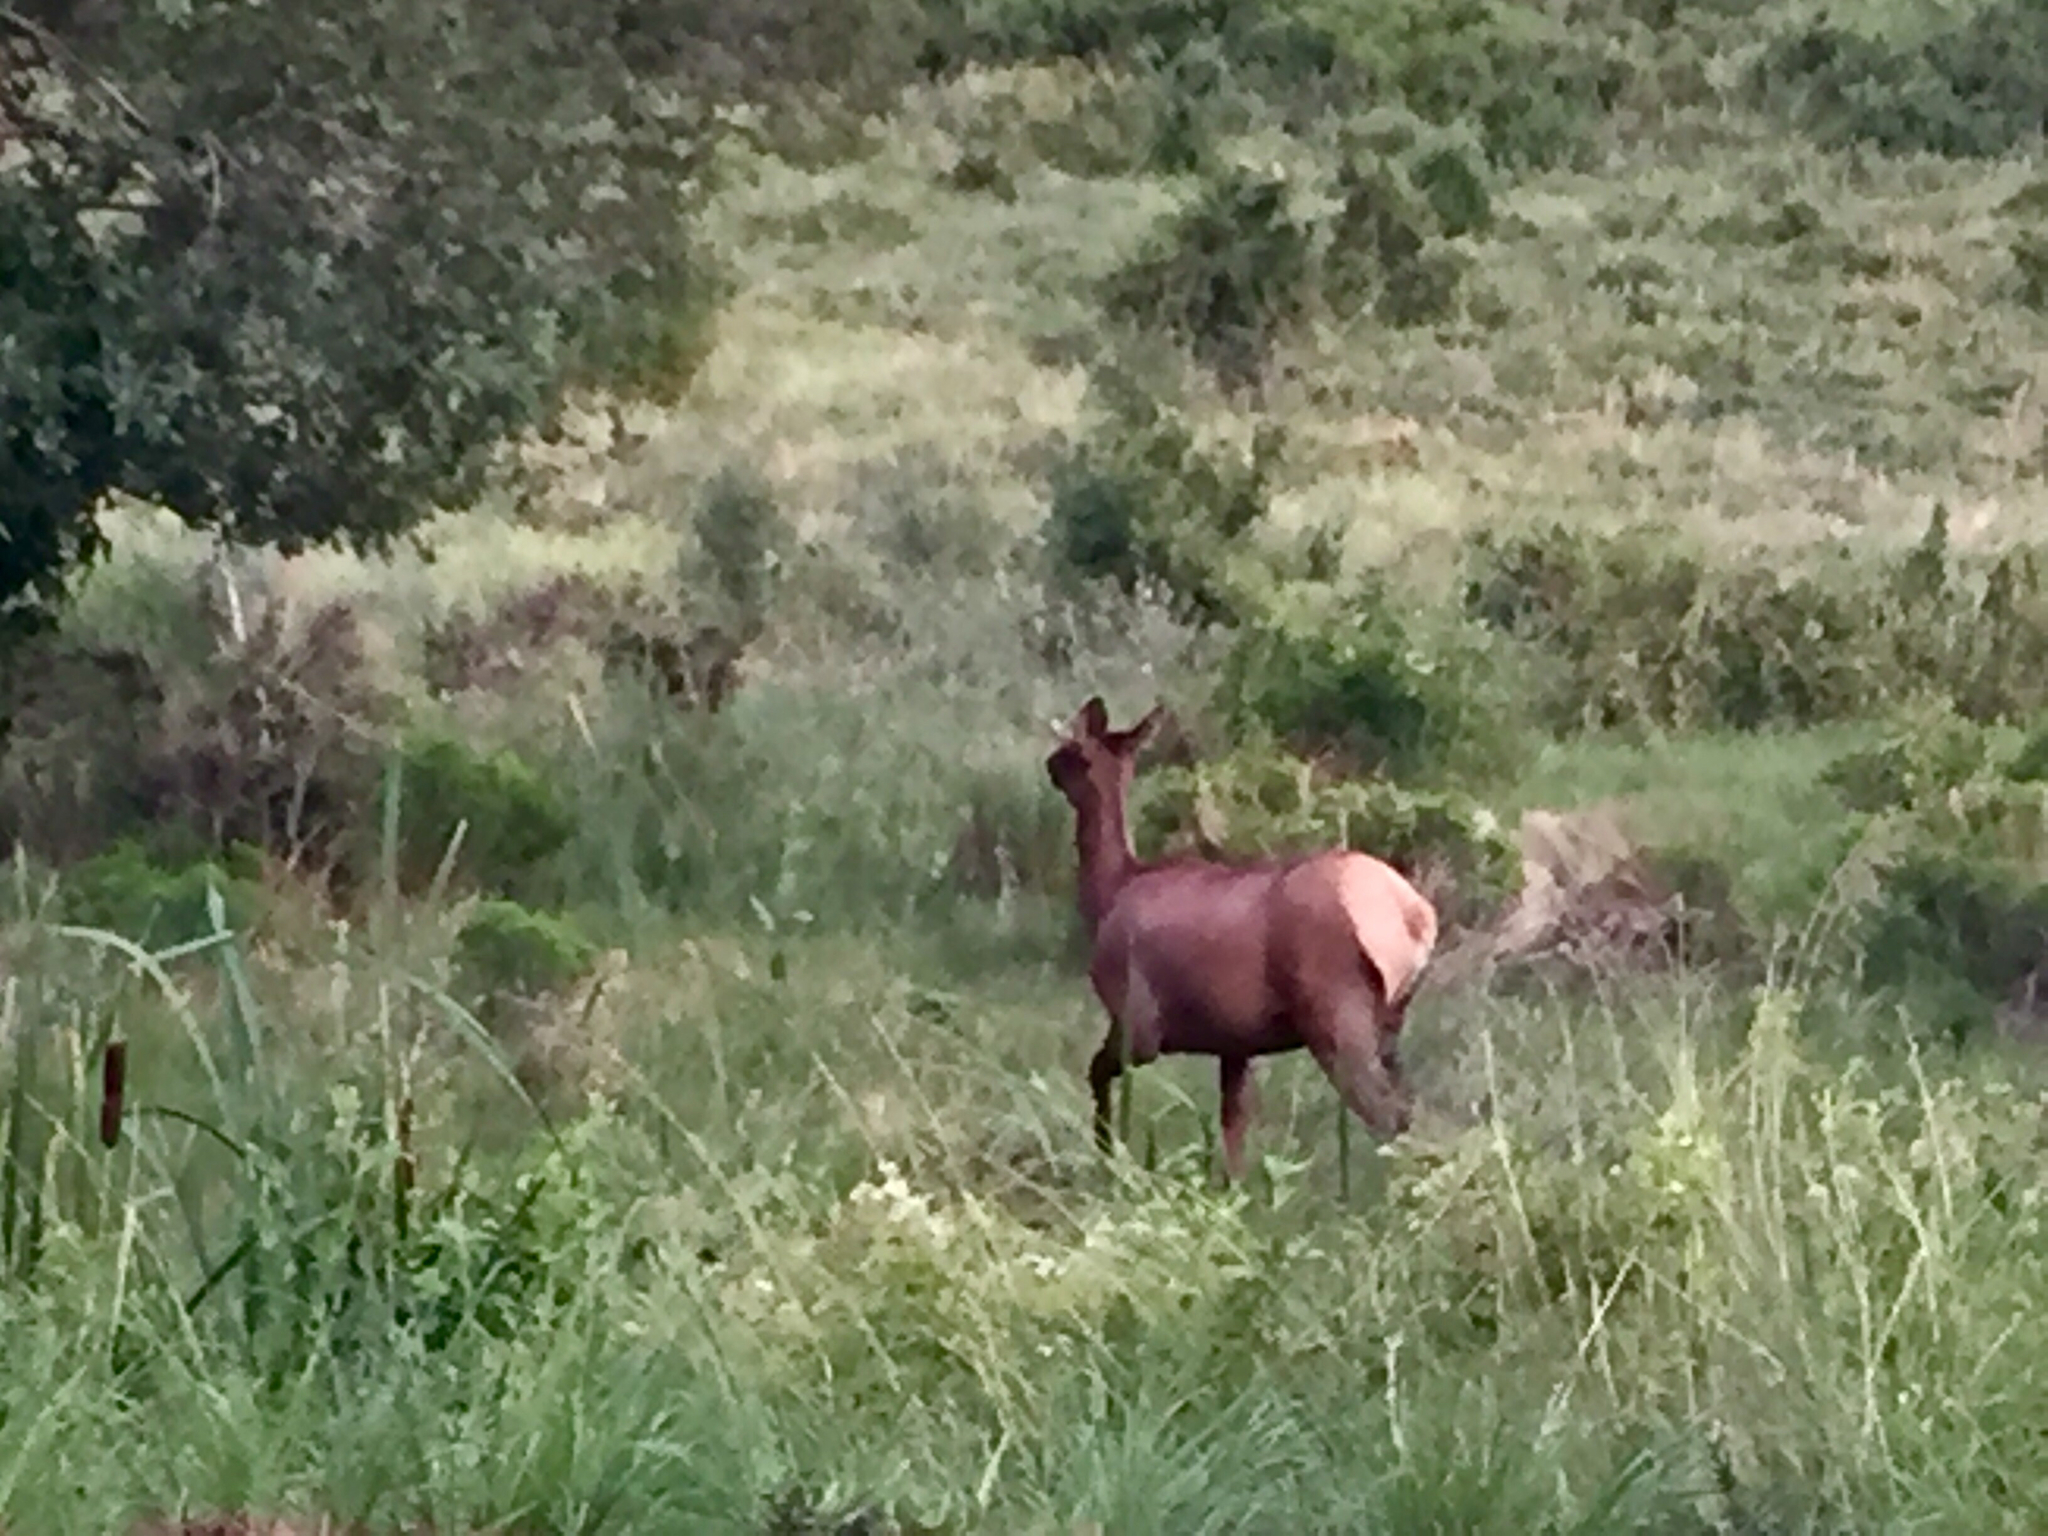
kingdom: Animalia
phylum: Chordata
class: Mammalia
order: Artiodactyla
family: Cervidae
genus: Cervus
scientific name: Cervus elaphus
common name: Red deer
